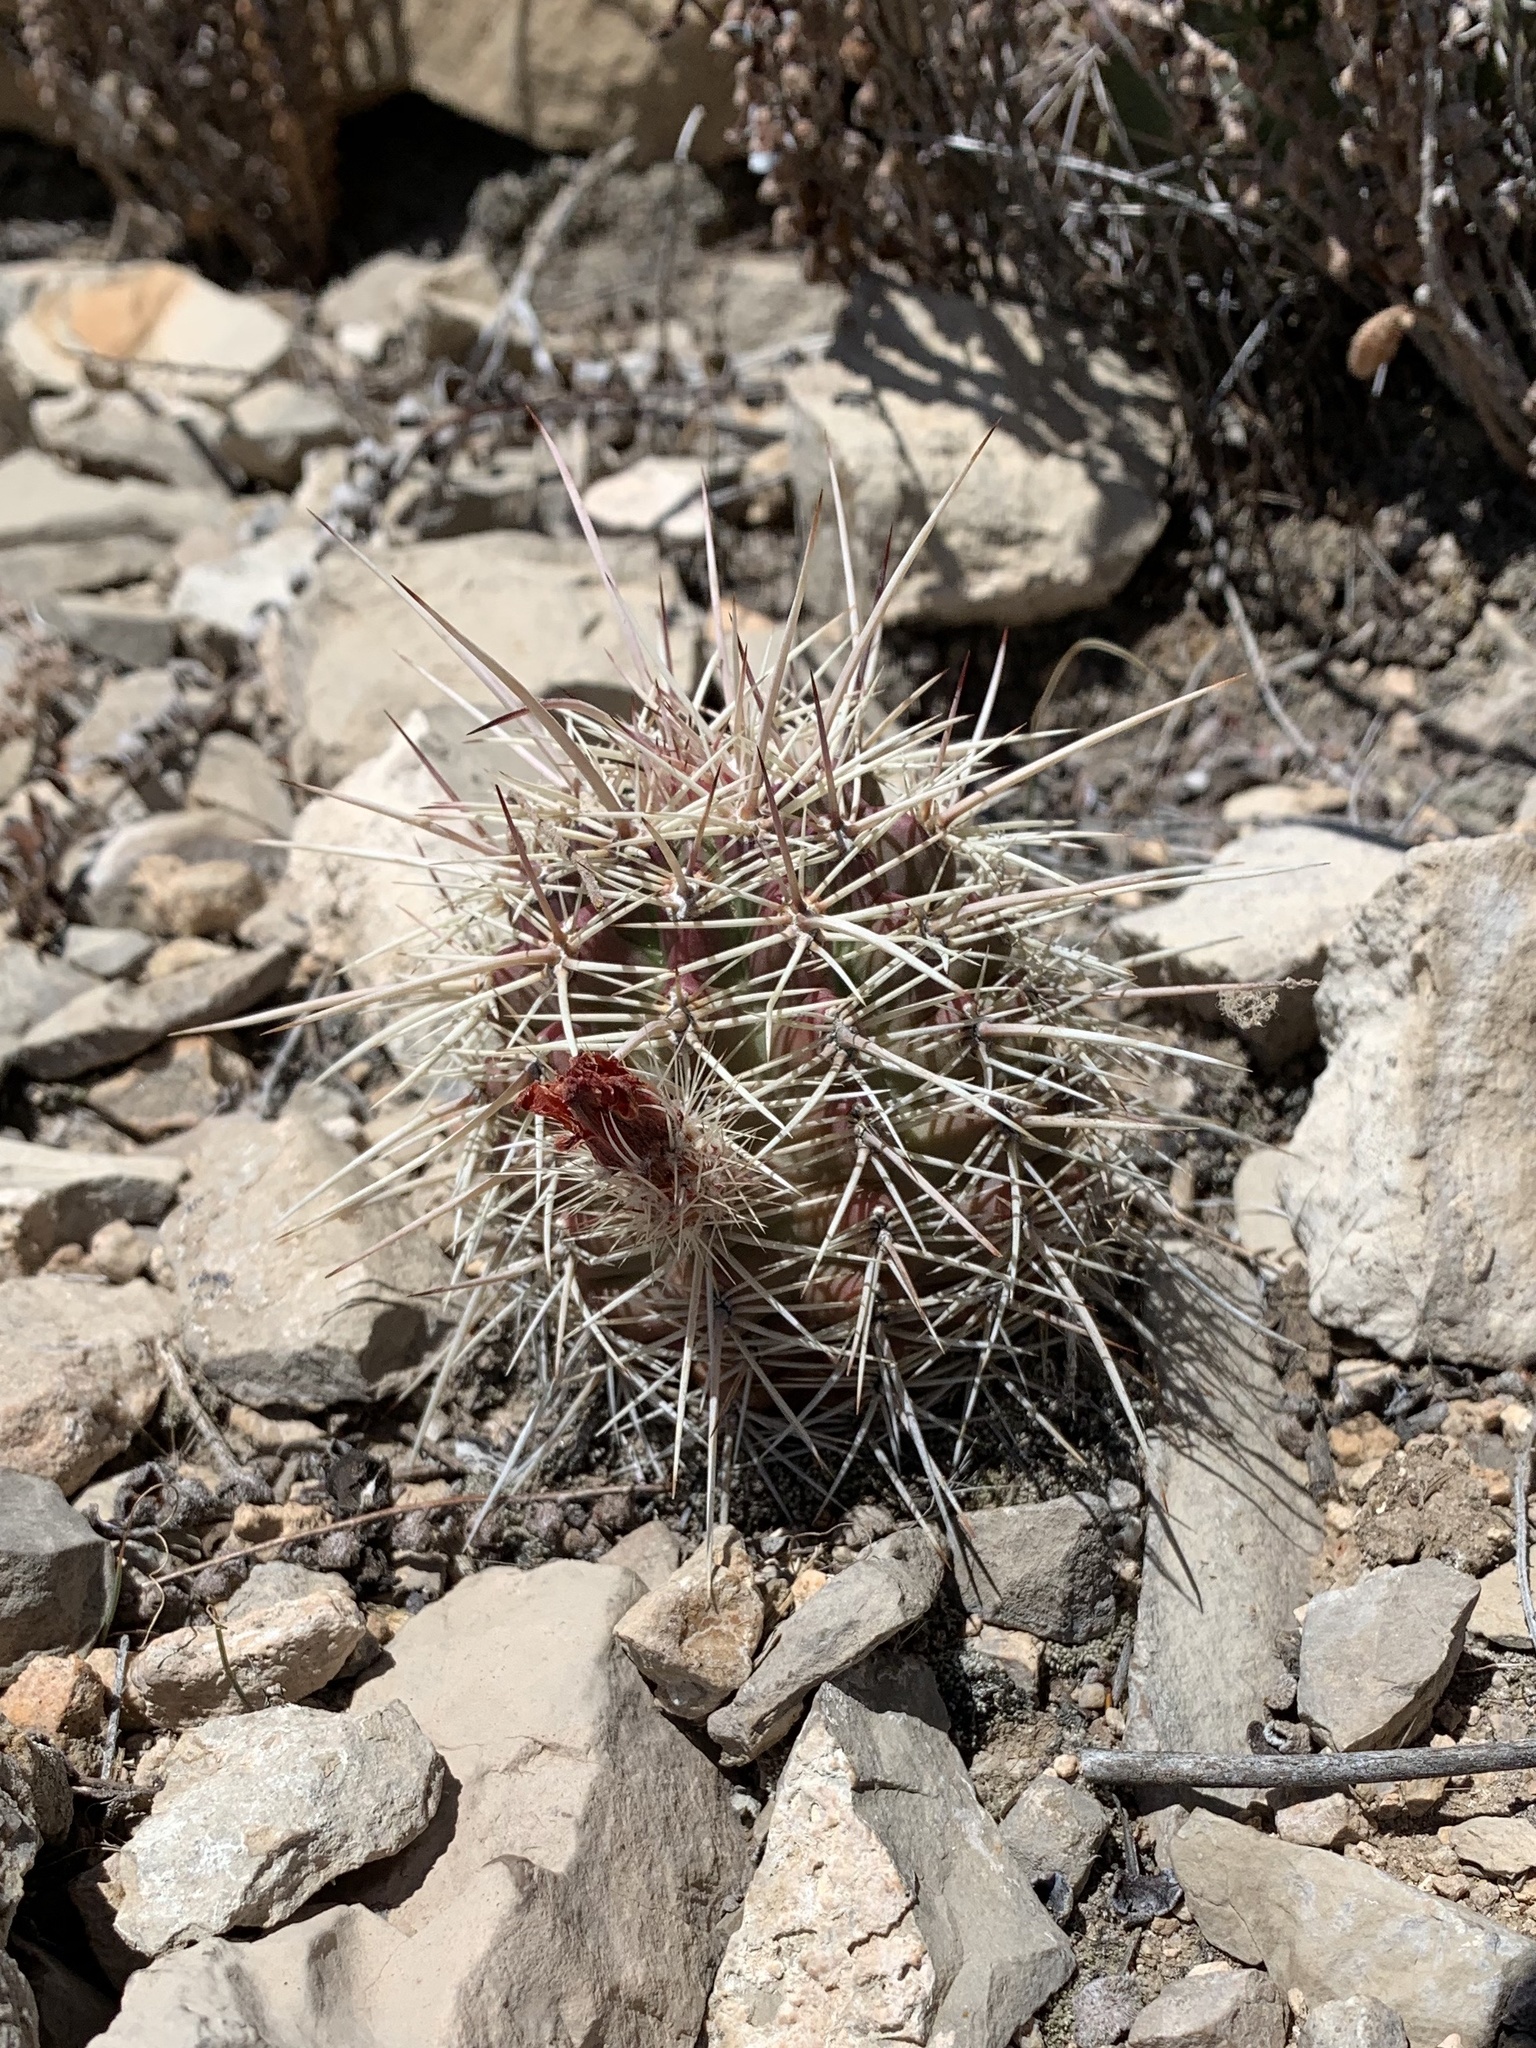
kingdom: Plantae
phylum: Tracheophyta
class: Magnoliopsida
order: Caryophyllales
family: Cactaceae
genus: Echinocereus
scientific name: Echinocereus coccineus
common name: Scarlet hedgehog cactus
